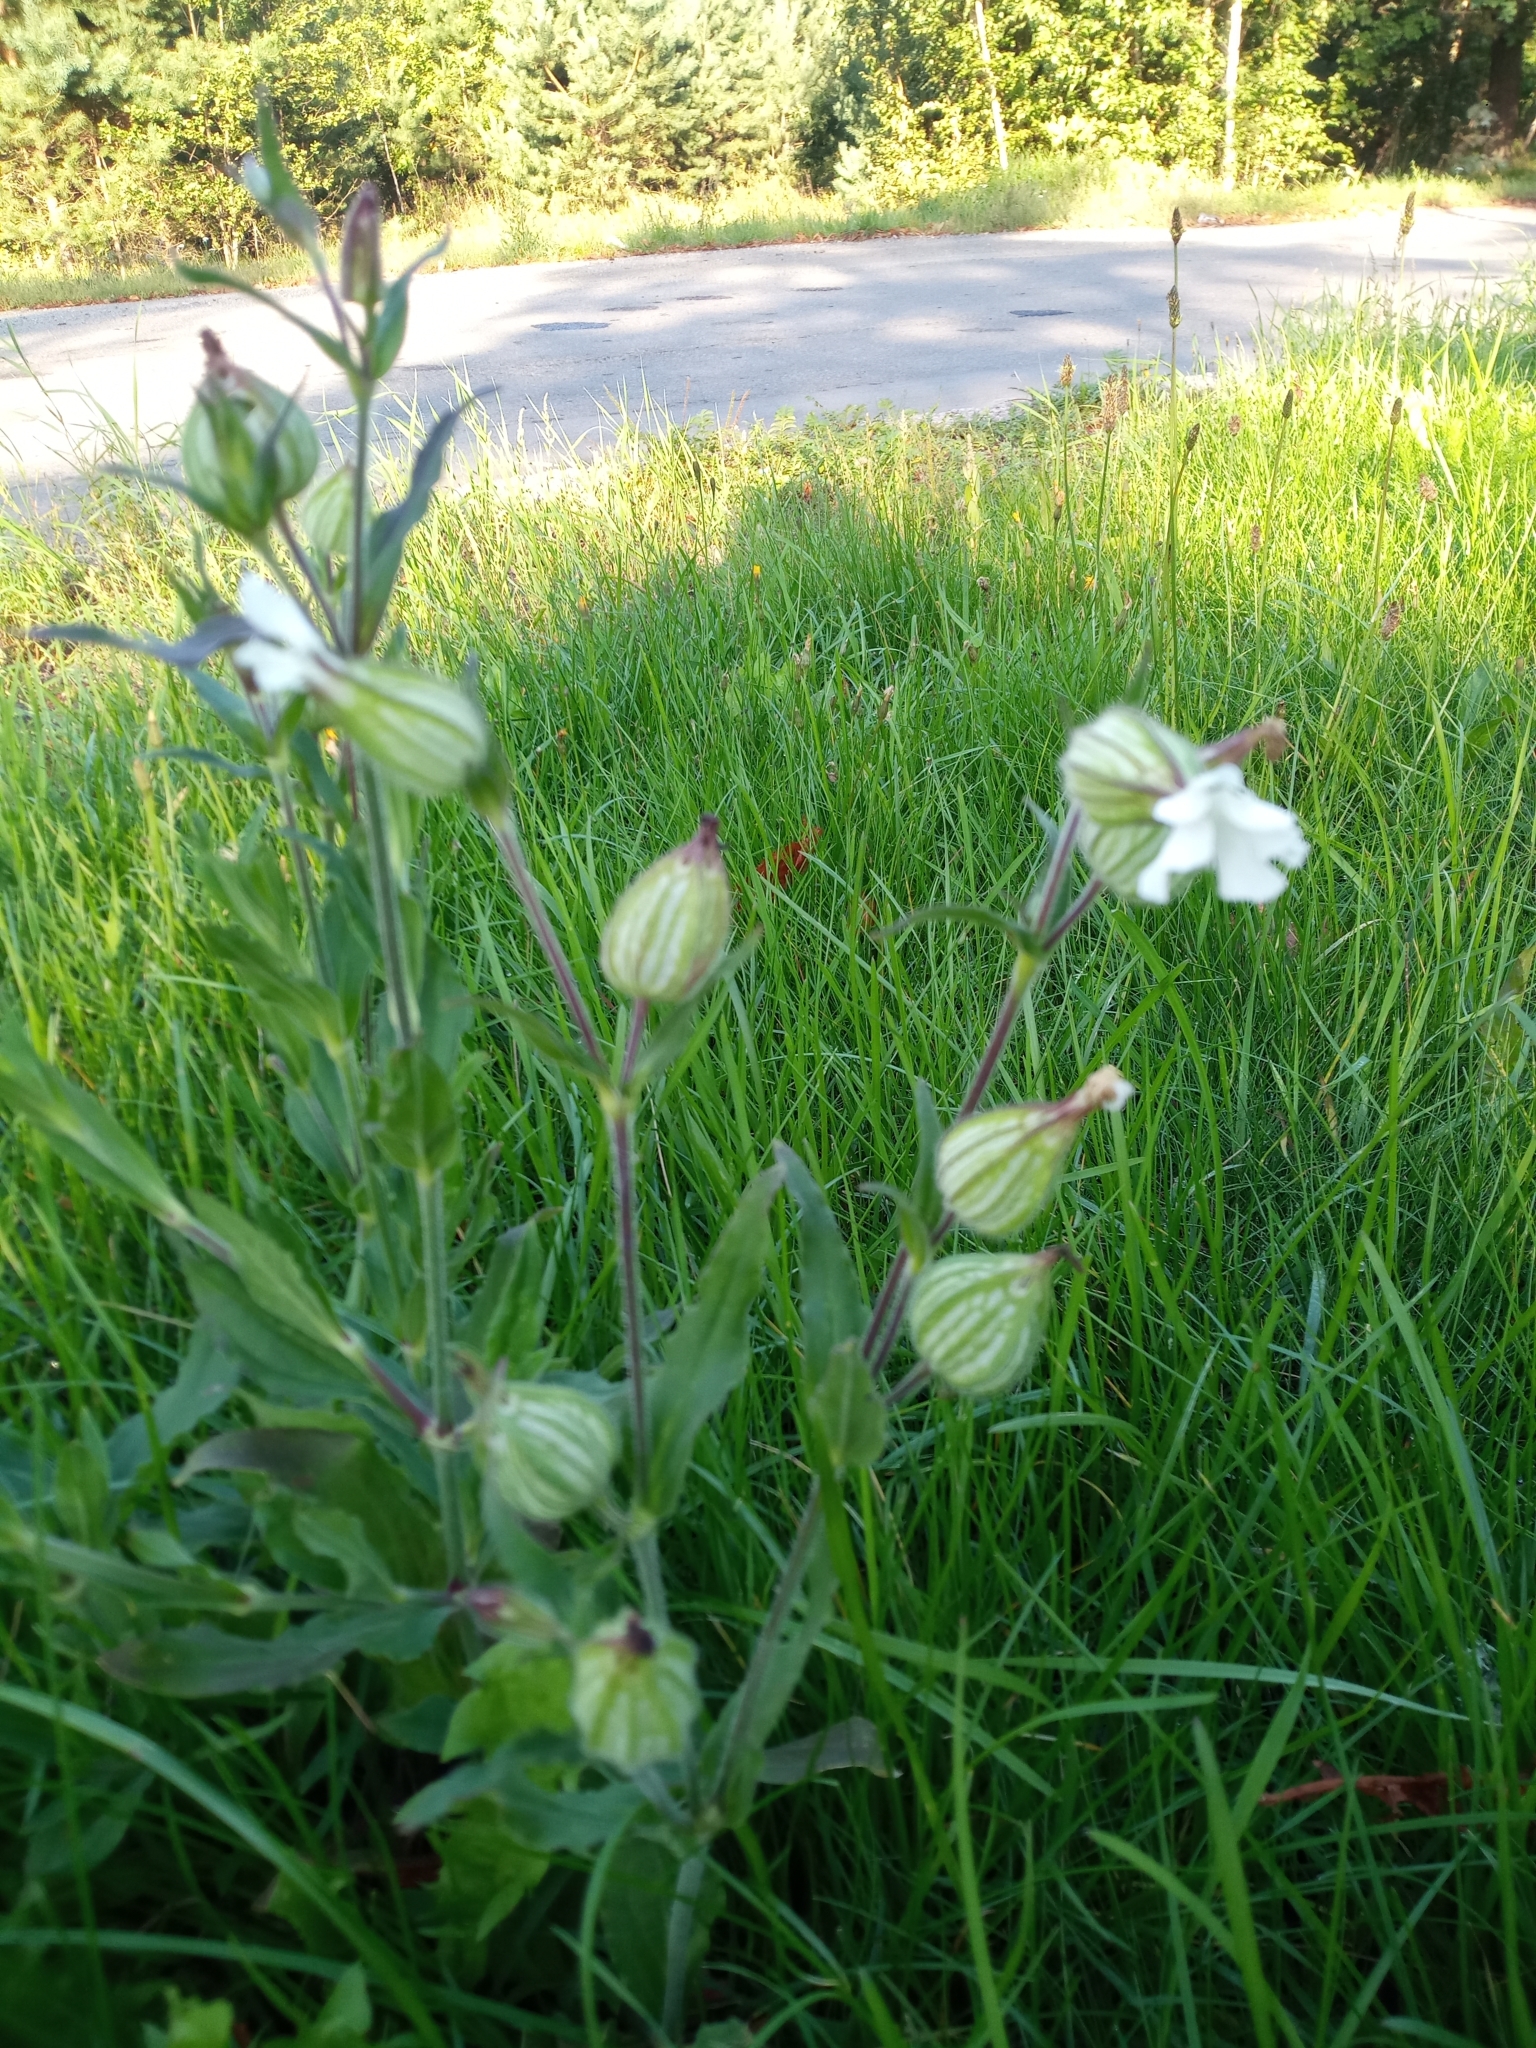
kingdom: Plantae
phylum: Tracheophyta
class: Magnoliopsida
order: Caryophyllales
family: Caryophyllaceae
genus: Silene
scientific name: Silene latifolia
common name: White campion
